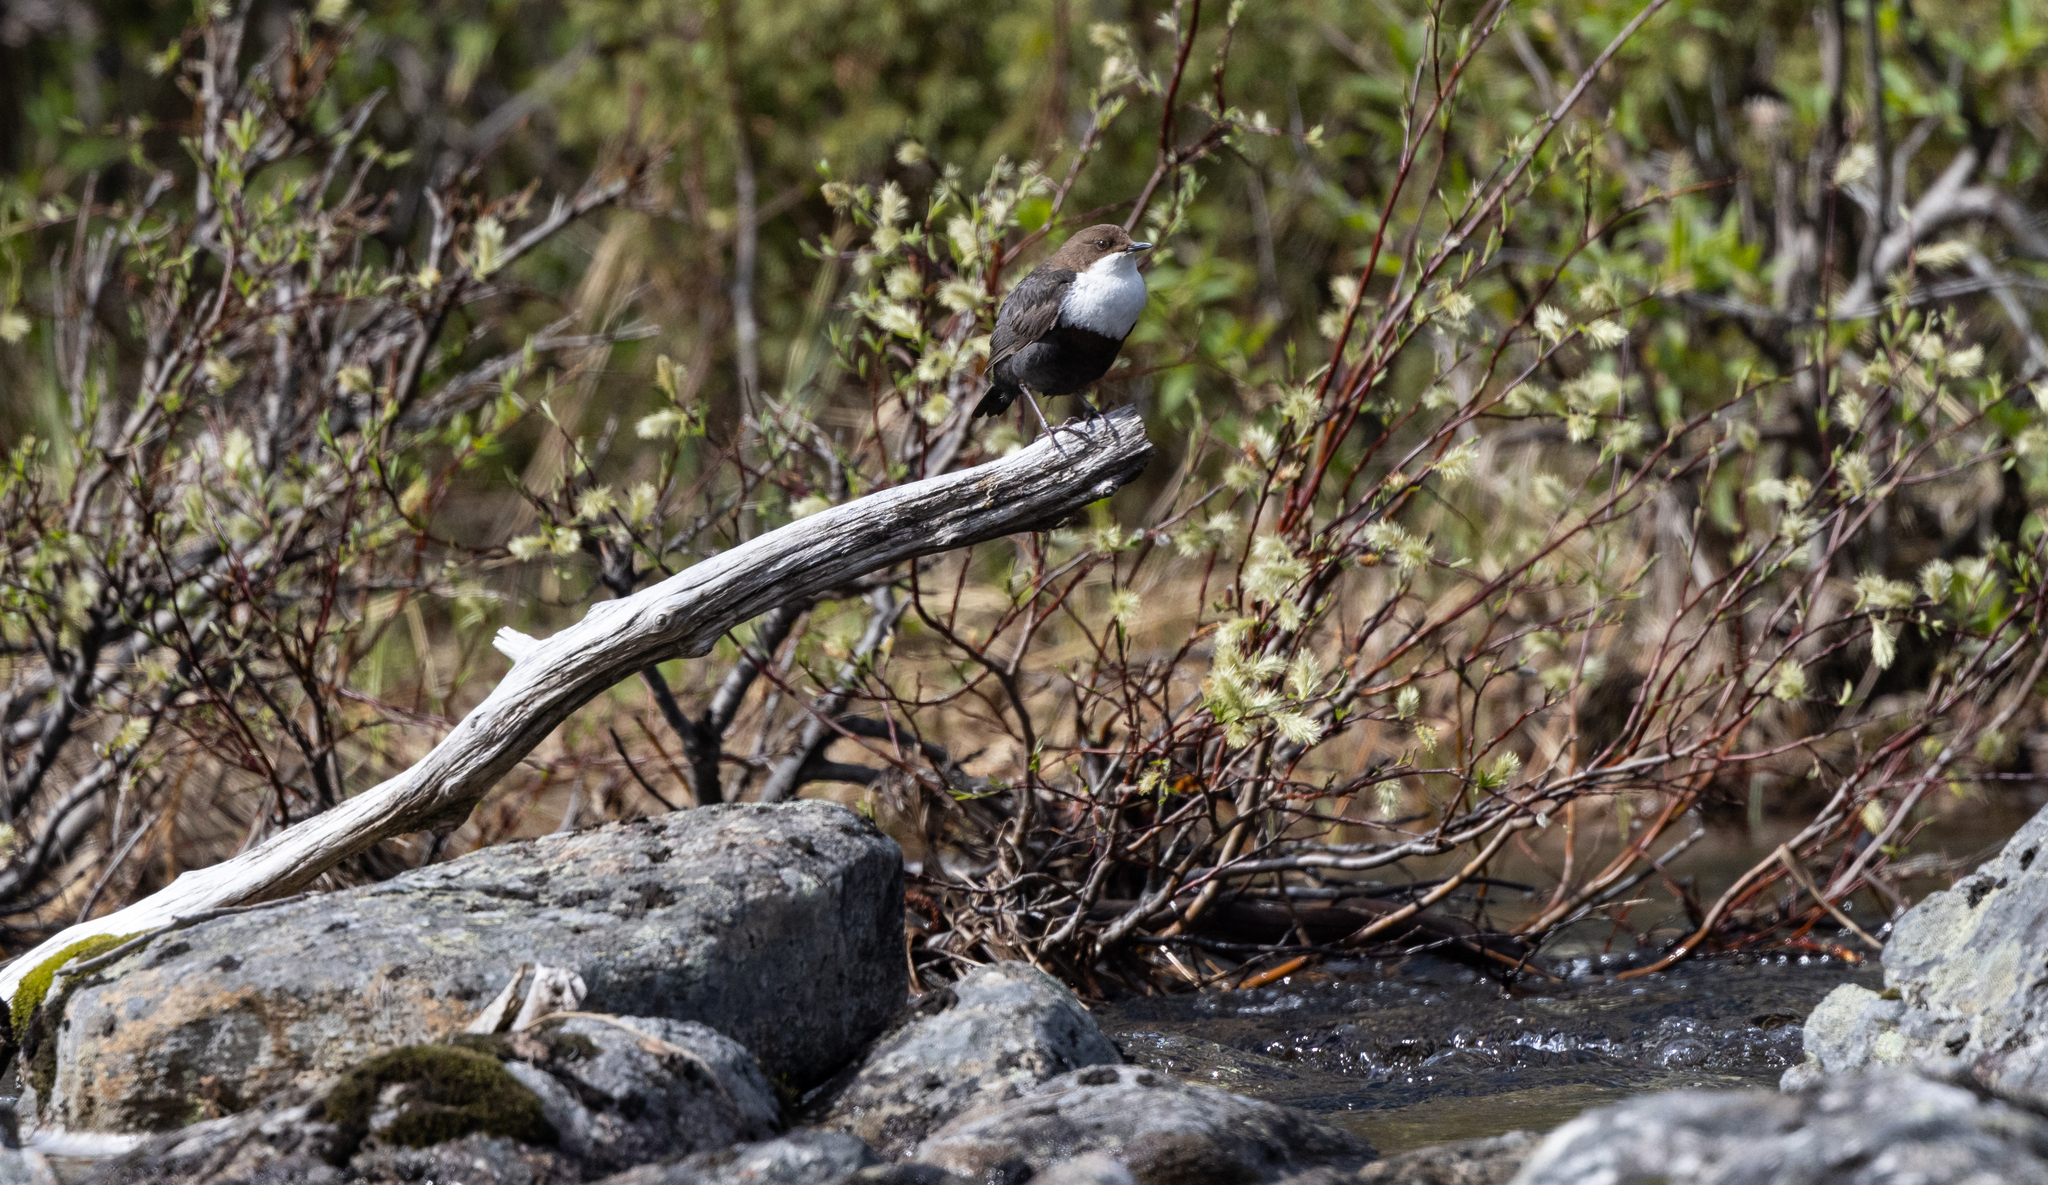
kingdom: Animalia
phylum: Chordata
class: Aves
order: Passeriformes
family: Cinclidae
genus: Cinclus
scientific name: Cinclus cinclus
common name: White-throated dipper
